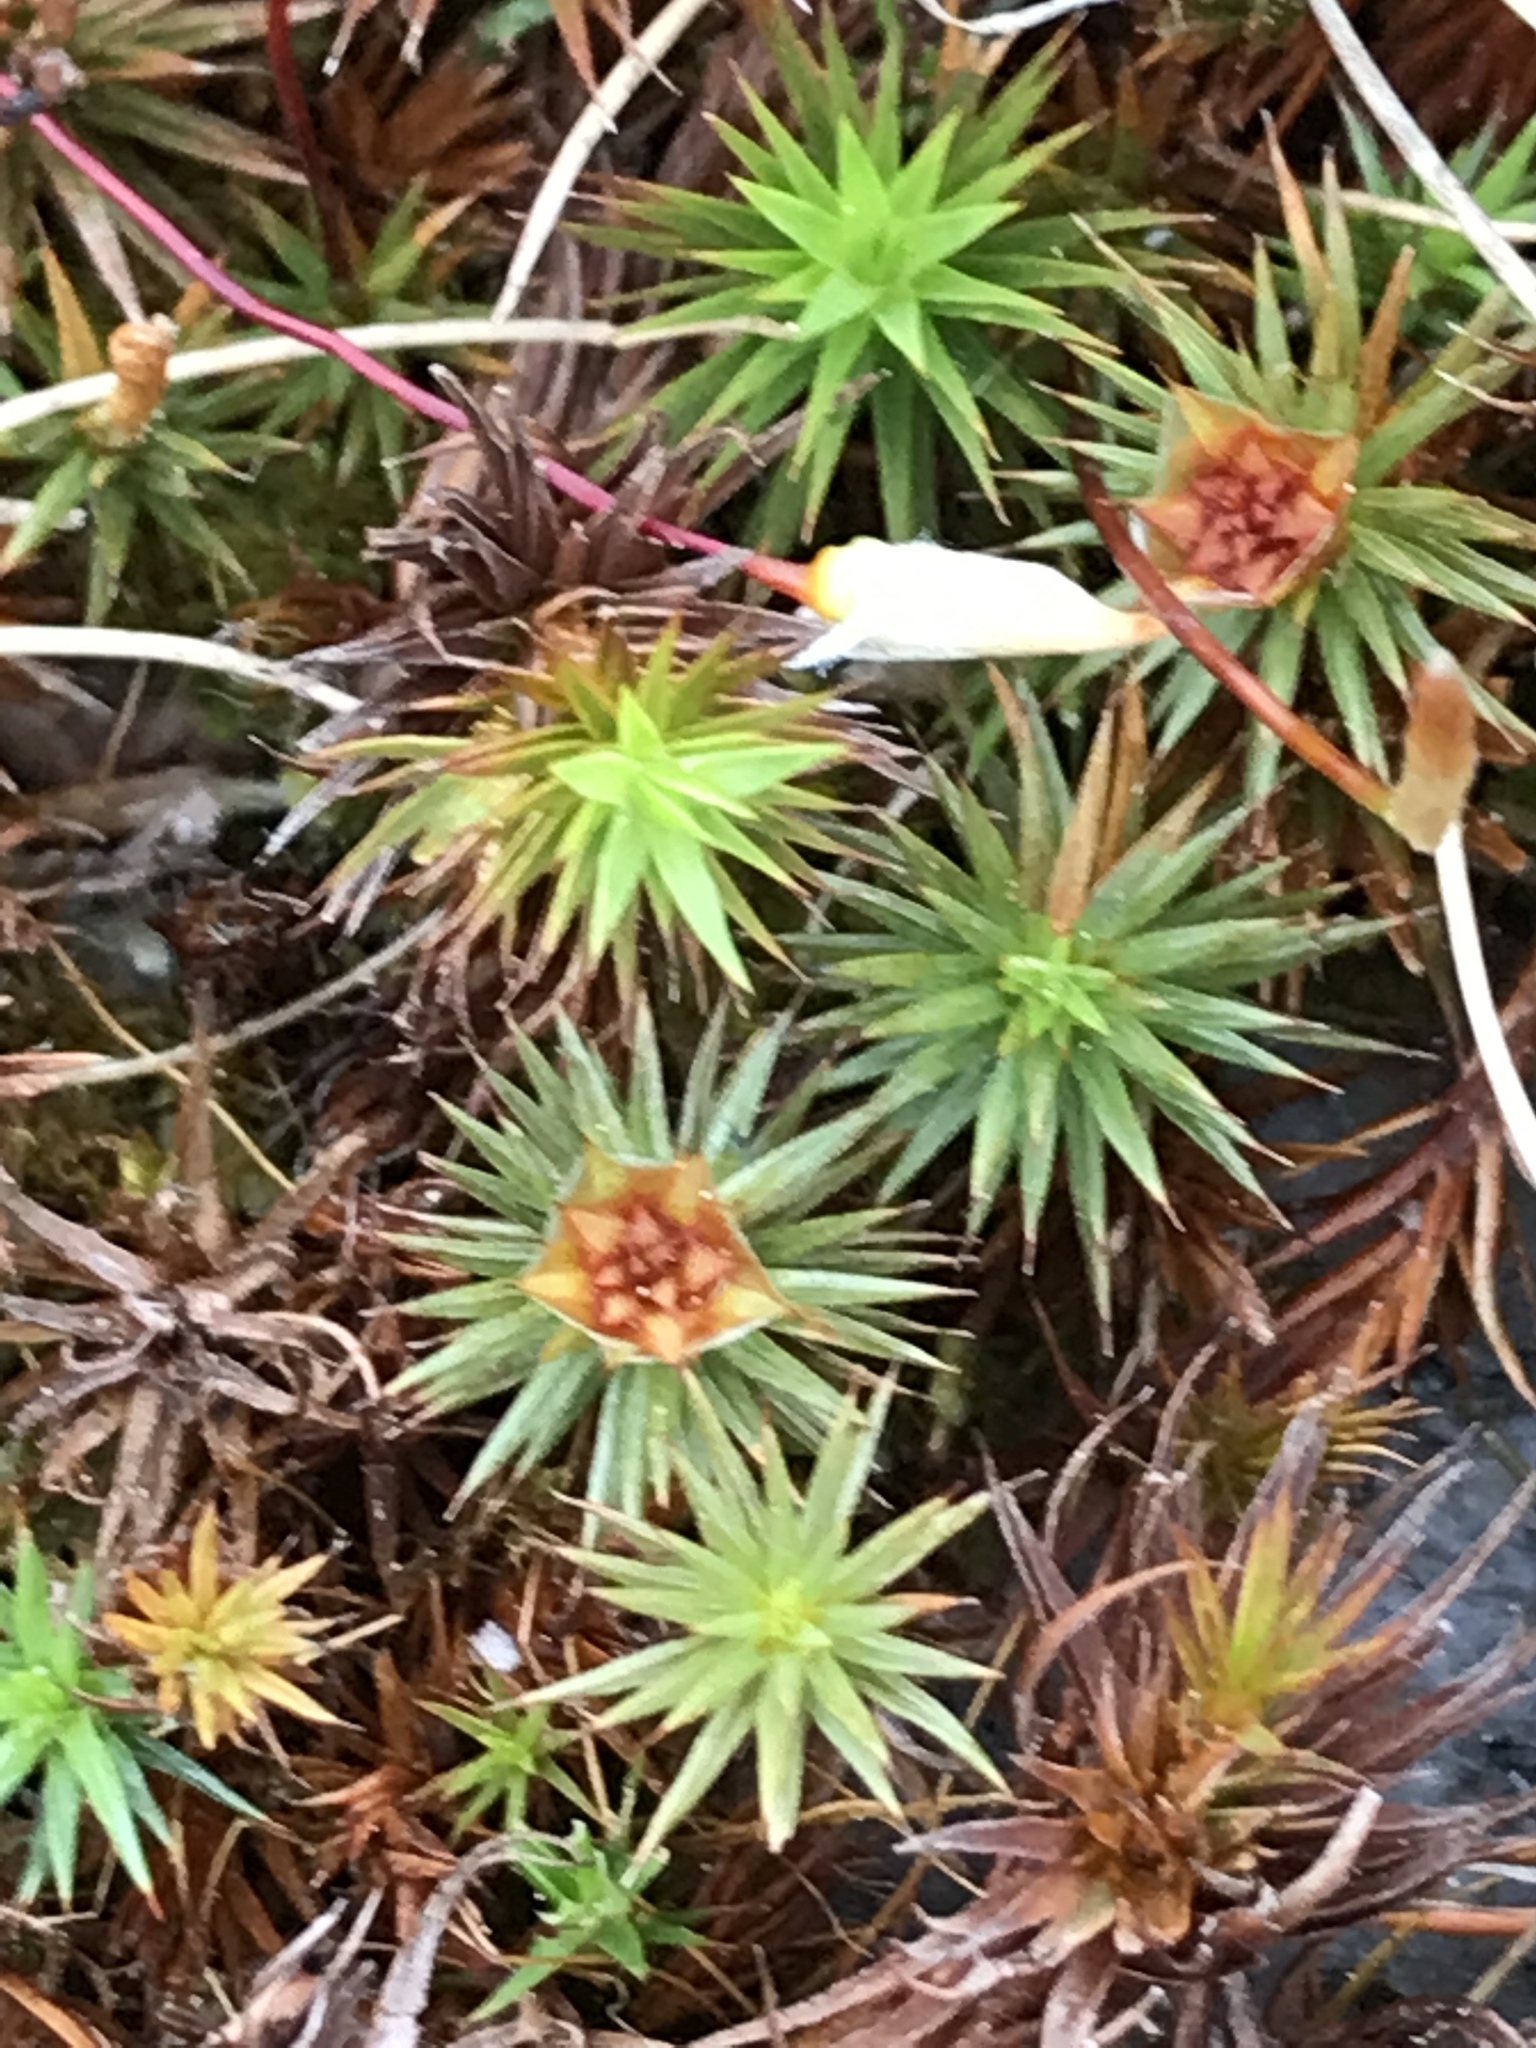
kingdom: Plantae
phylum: Bryophyta
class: Polytrichopsida
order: Polytrichales
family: Polytrichaceae
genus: Polytrichum
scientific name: Polytrichum piliferum
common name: Bristly haircap
